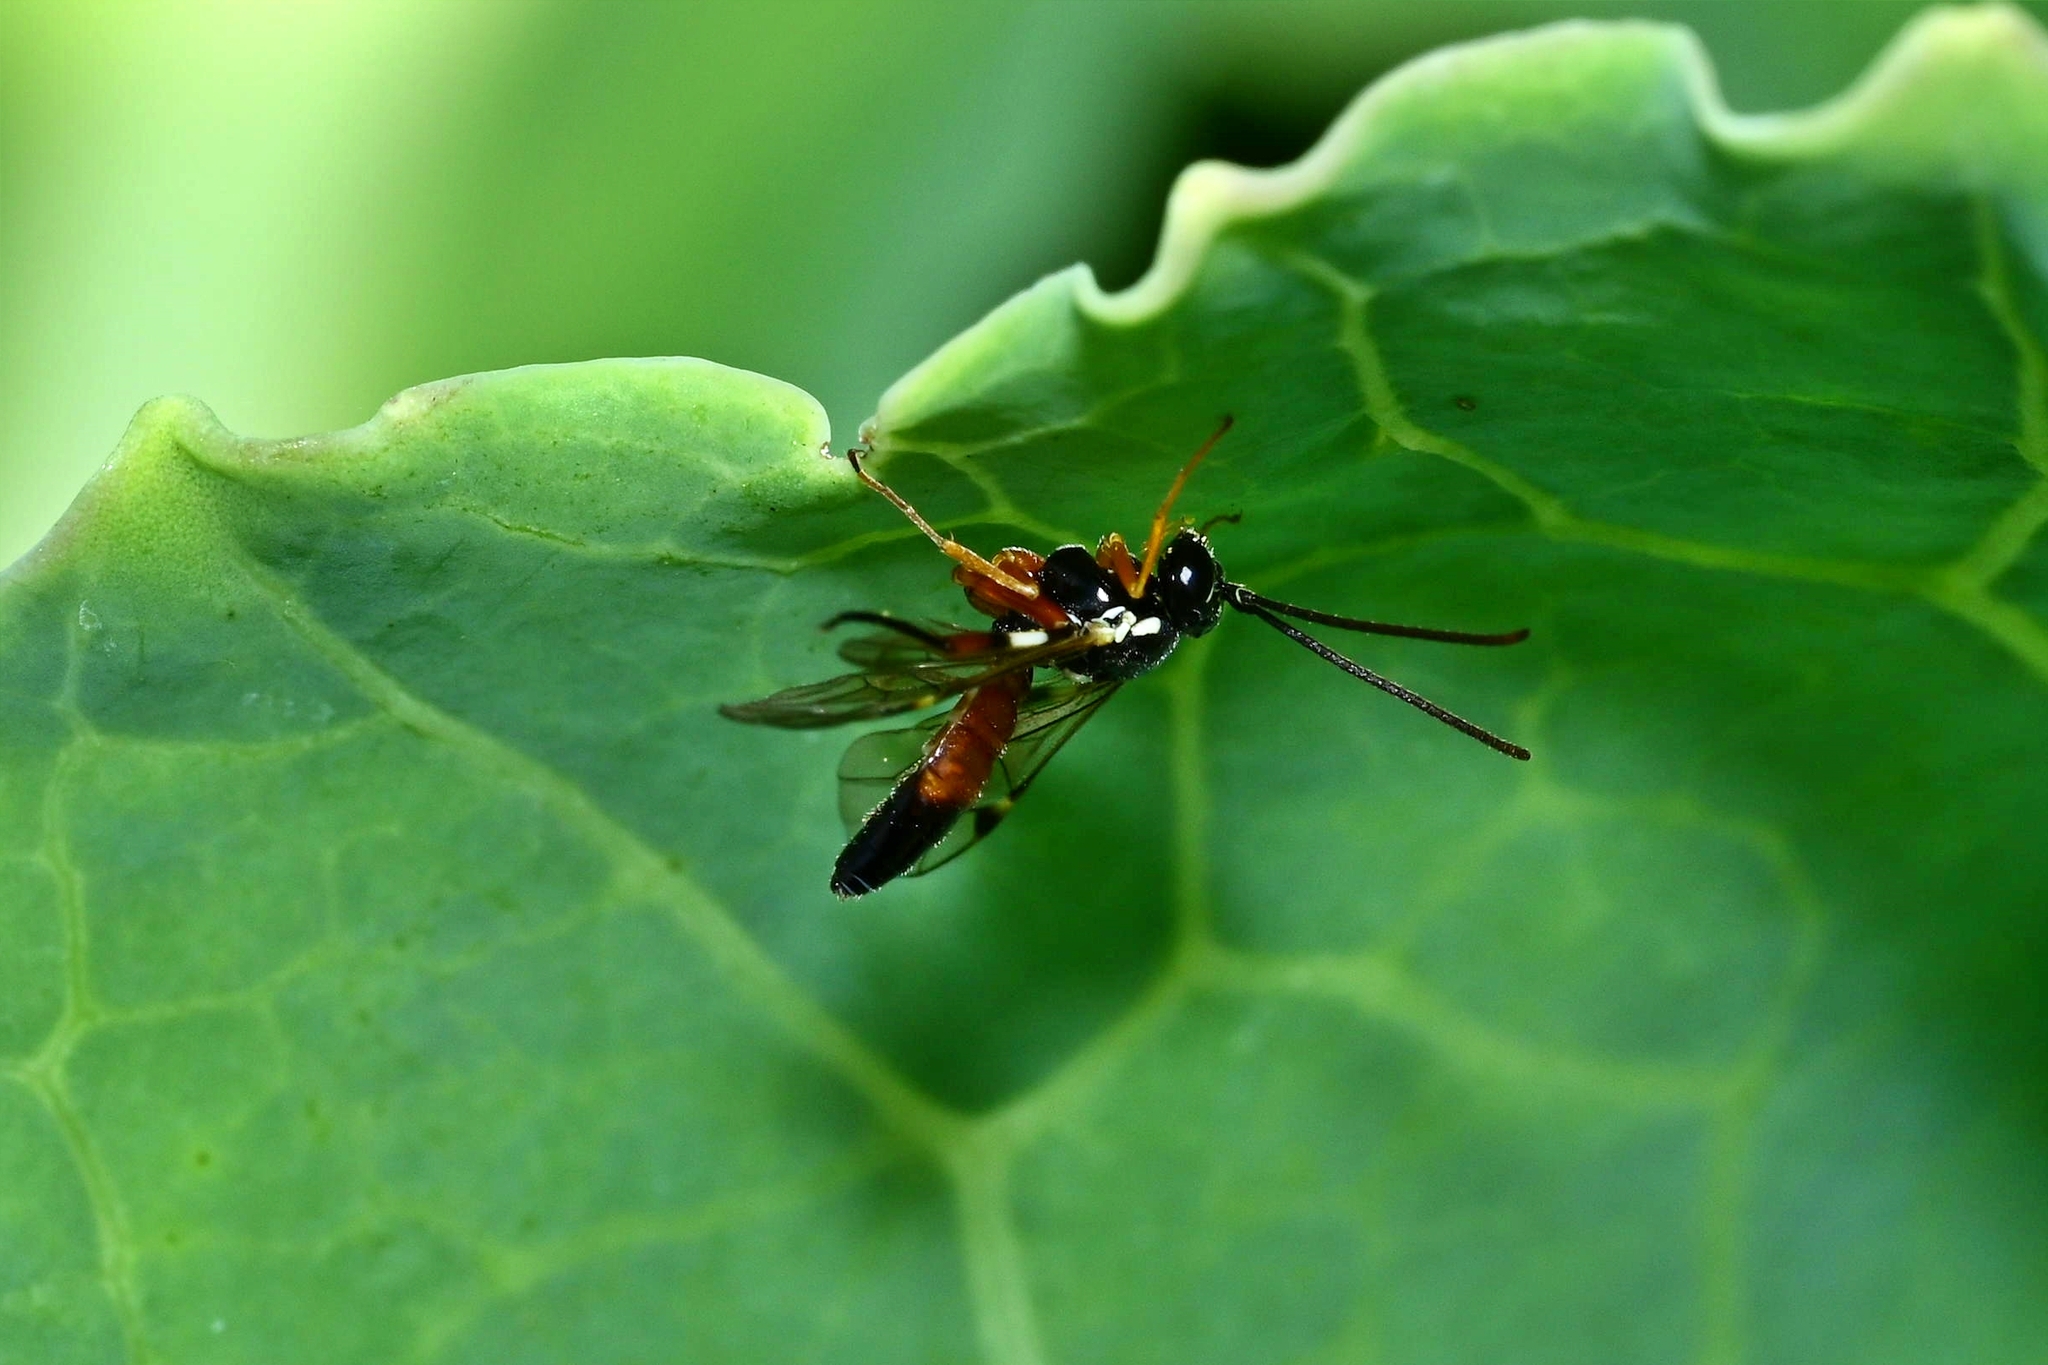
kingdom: Animalia
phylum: Arthropoda
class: Insecta
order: Hymenoptera
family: Ichneumonidae
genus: Diplazon
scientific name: Diplazon laetatorius
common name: Parasitoid wasp
